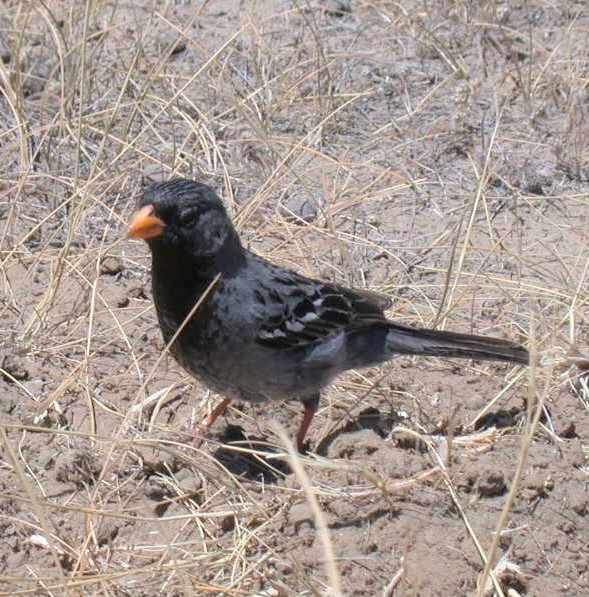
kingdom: Animalia
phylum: Chordata
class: Aves
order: Passeriformes
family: Thraupidae
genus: Rhopospina
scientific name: Rhopospina fruticeti
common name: Mourning sierra finch
